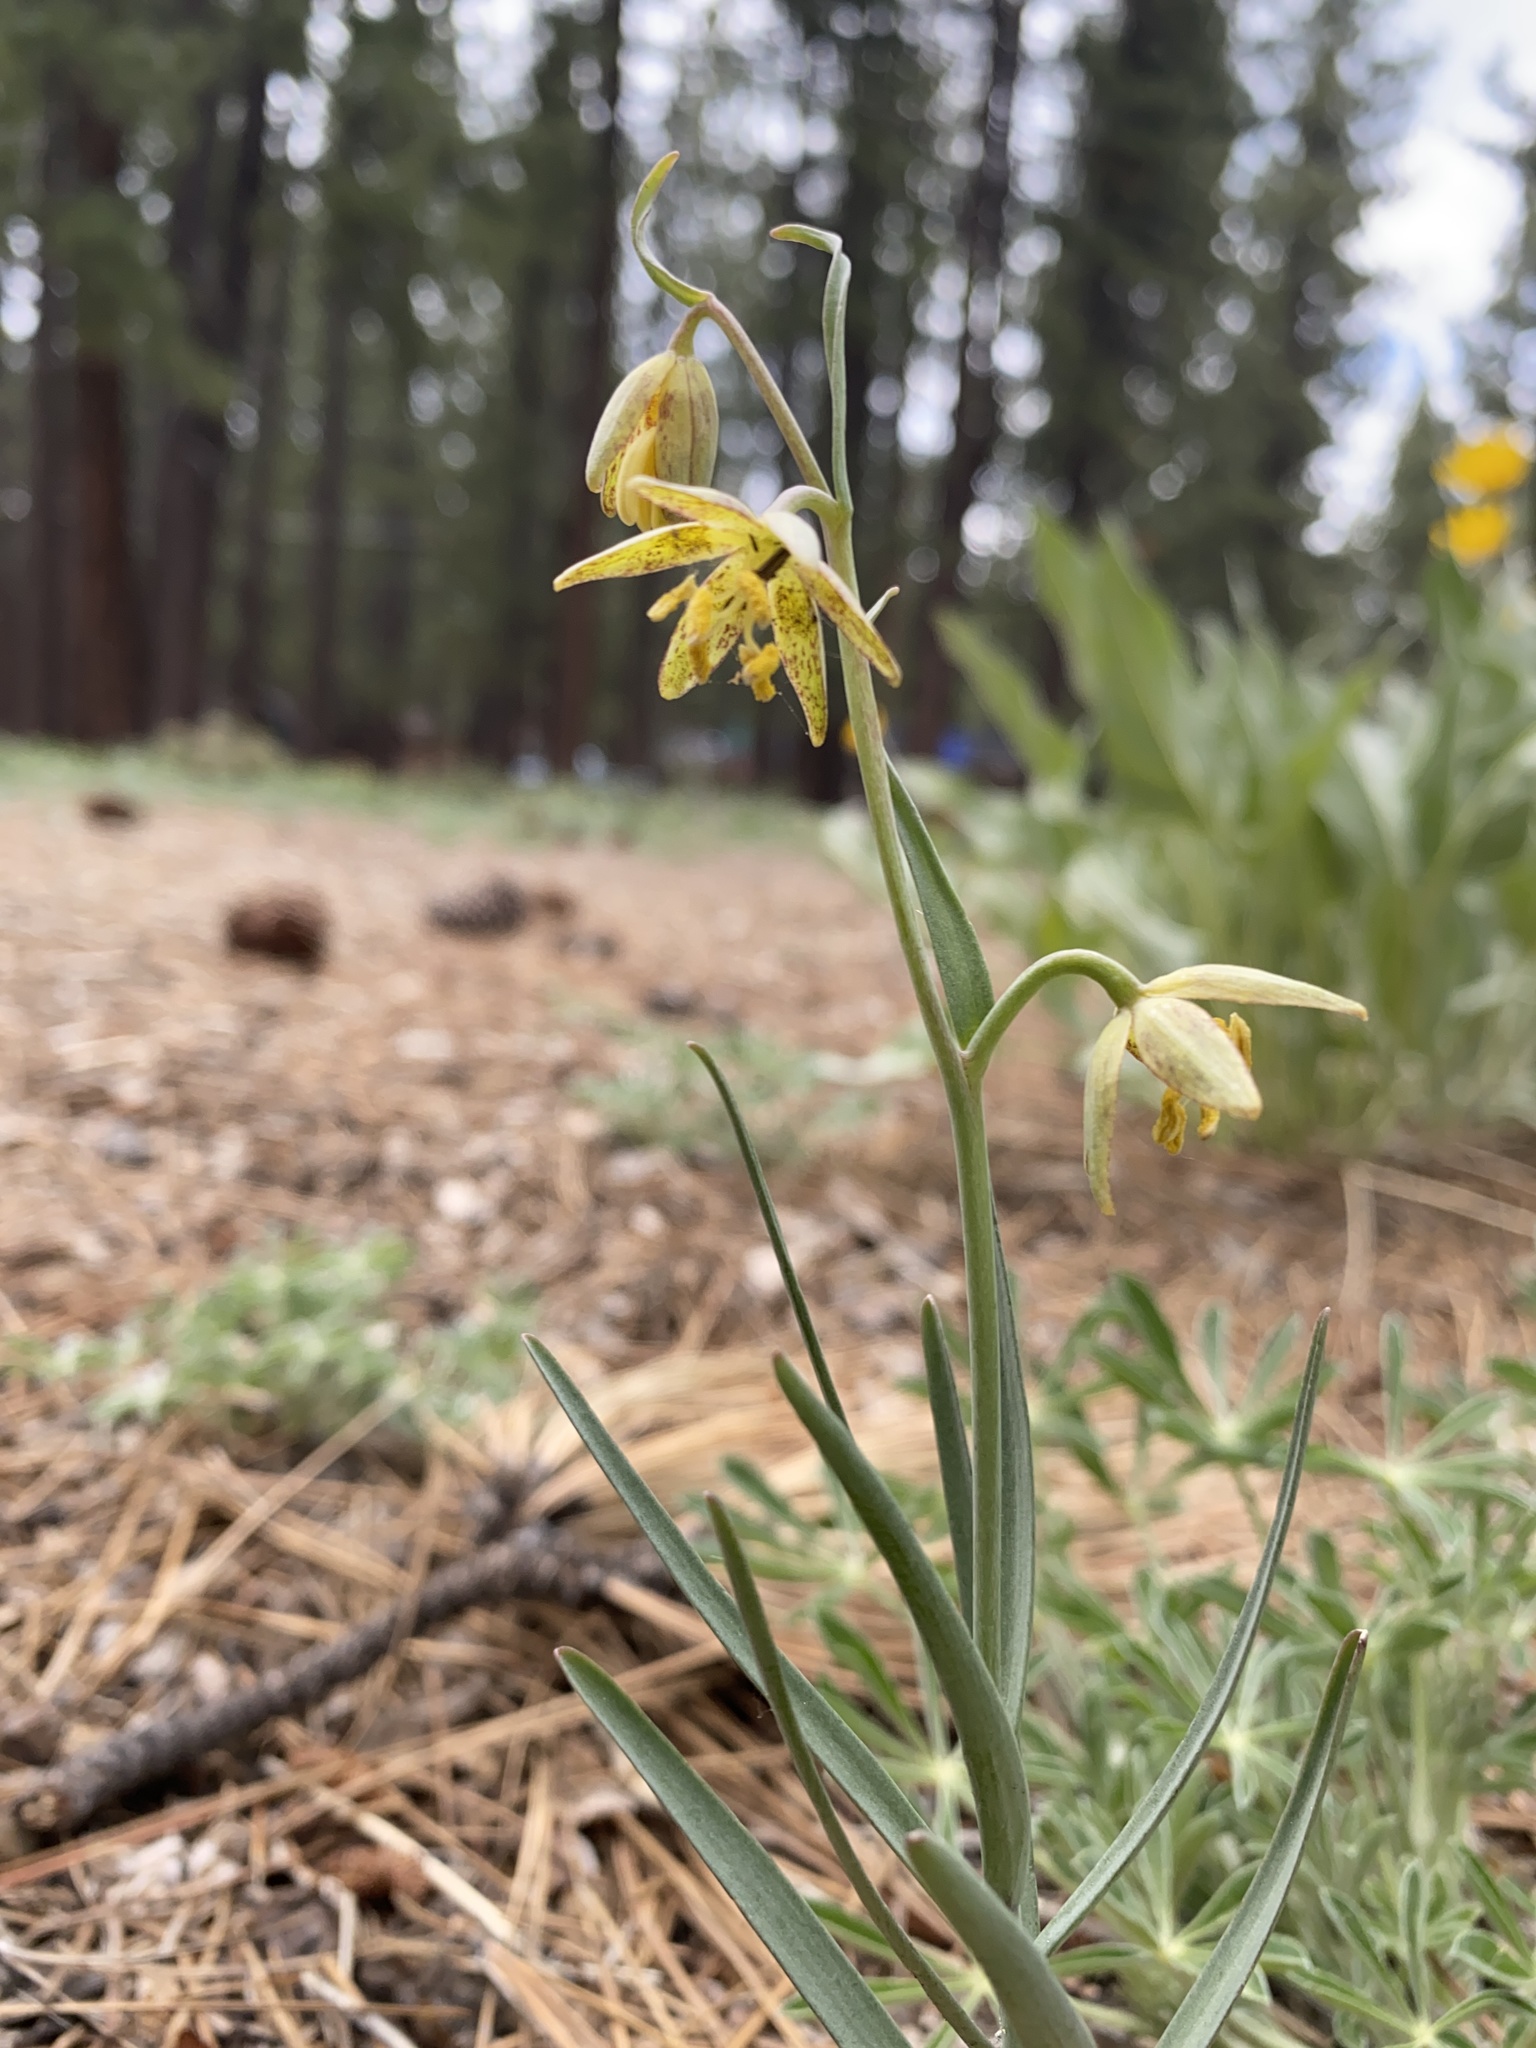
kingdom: Plantae
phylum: Tracheophyta
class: Liliopsida
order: Liliales
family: Liliaceae
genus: Fritillaria
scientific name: Fritillaria atropurpurea
